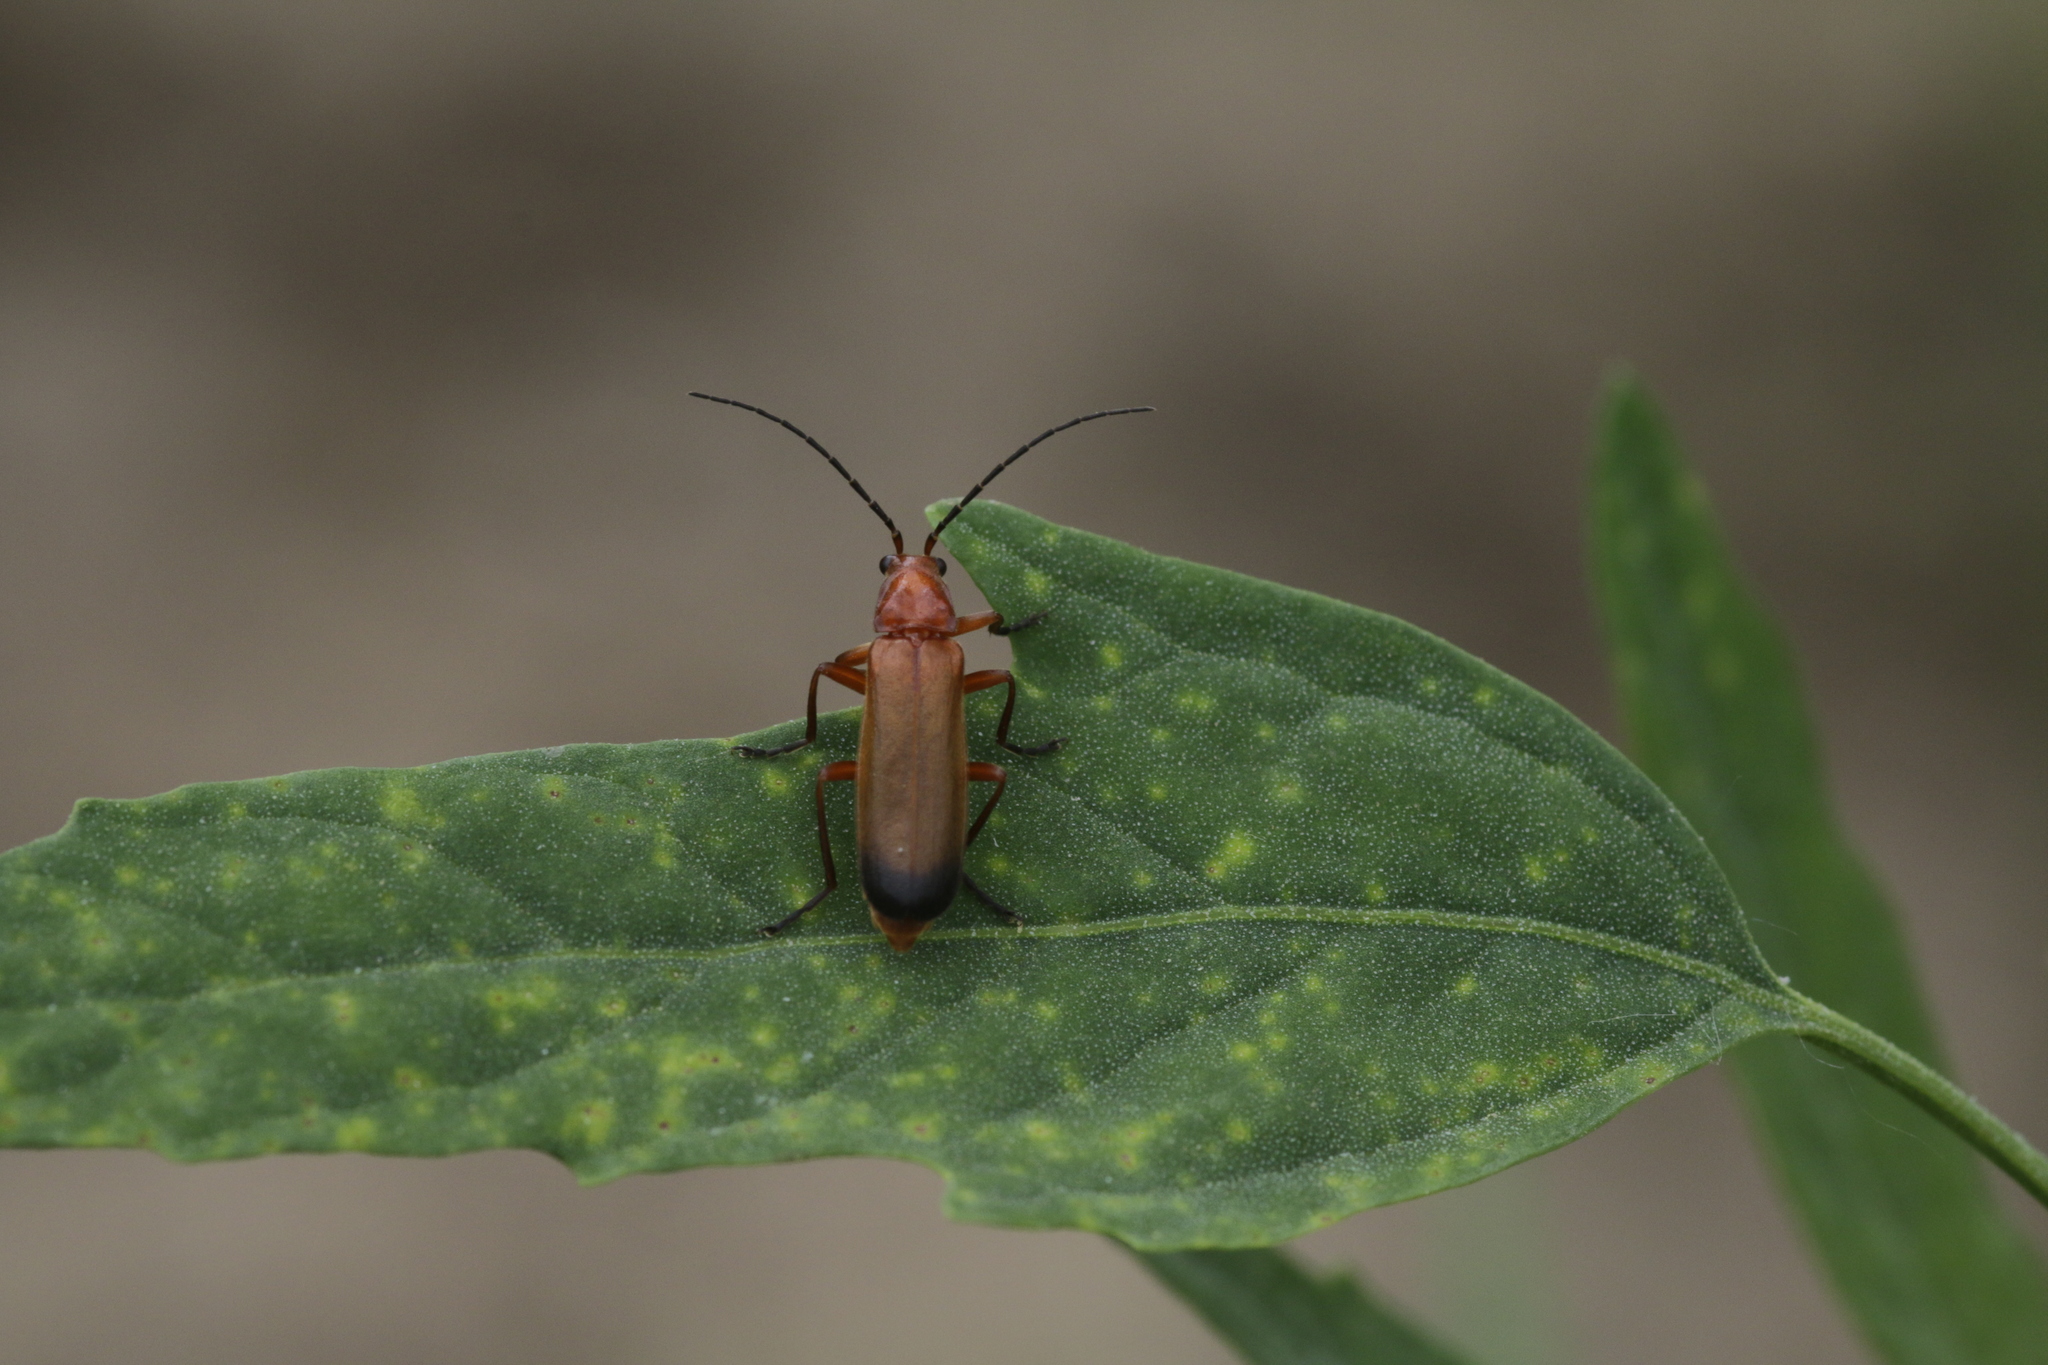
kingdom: Animalia
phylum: Arthropoda
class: Insecta
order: Coleoptera
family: Cantharidae
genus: Rhagonycha
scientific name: Rhagonycha fulva
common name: Common red soldier beetle
